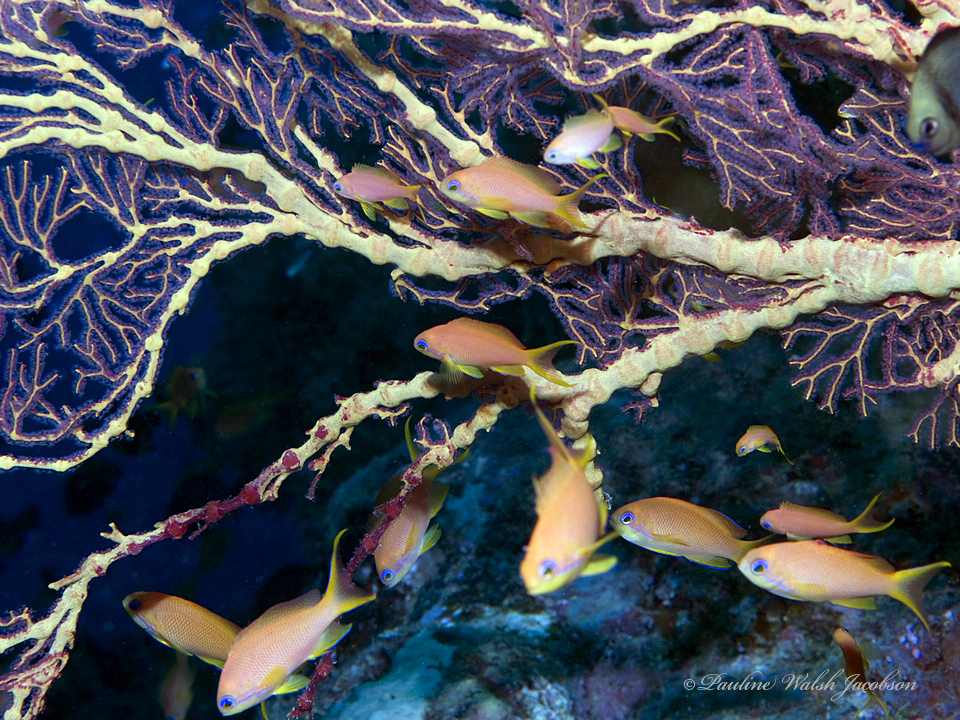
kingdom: Animalia
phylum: Chordata
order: Perciformes
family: Serranidae
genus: Pseudanthias
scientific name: Pseudanthias squamipinnis
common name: Scalefin anthias
